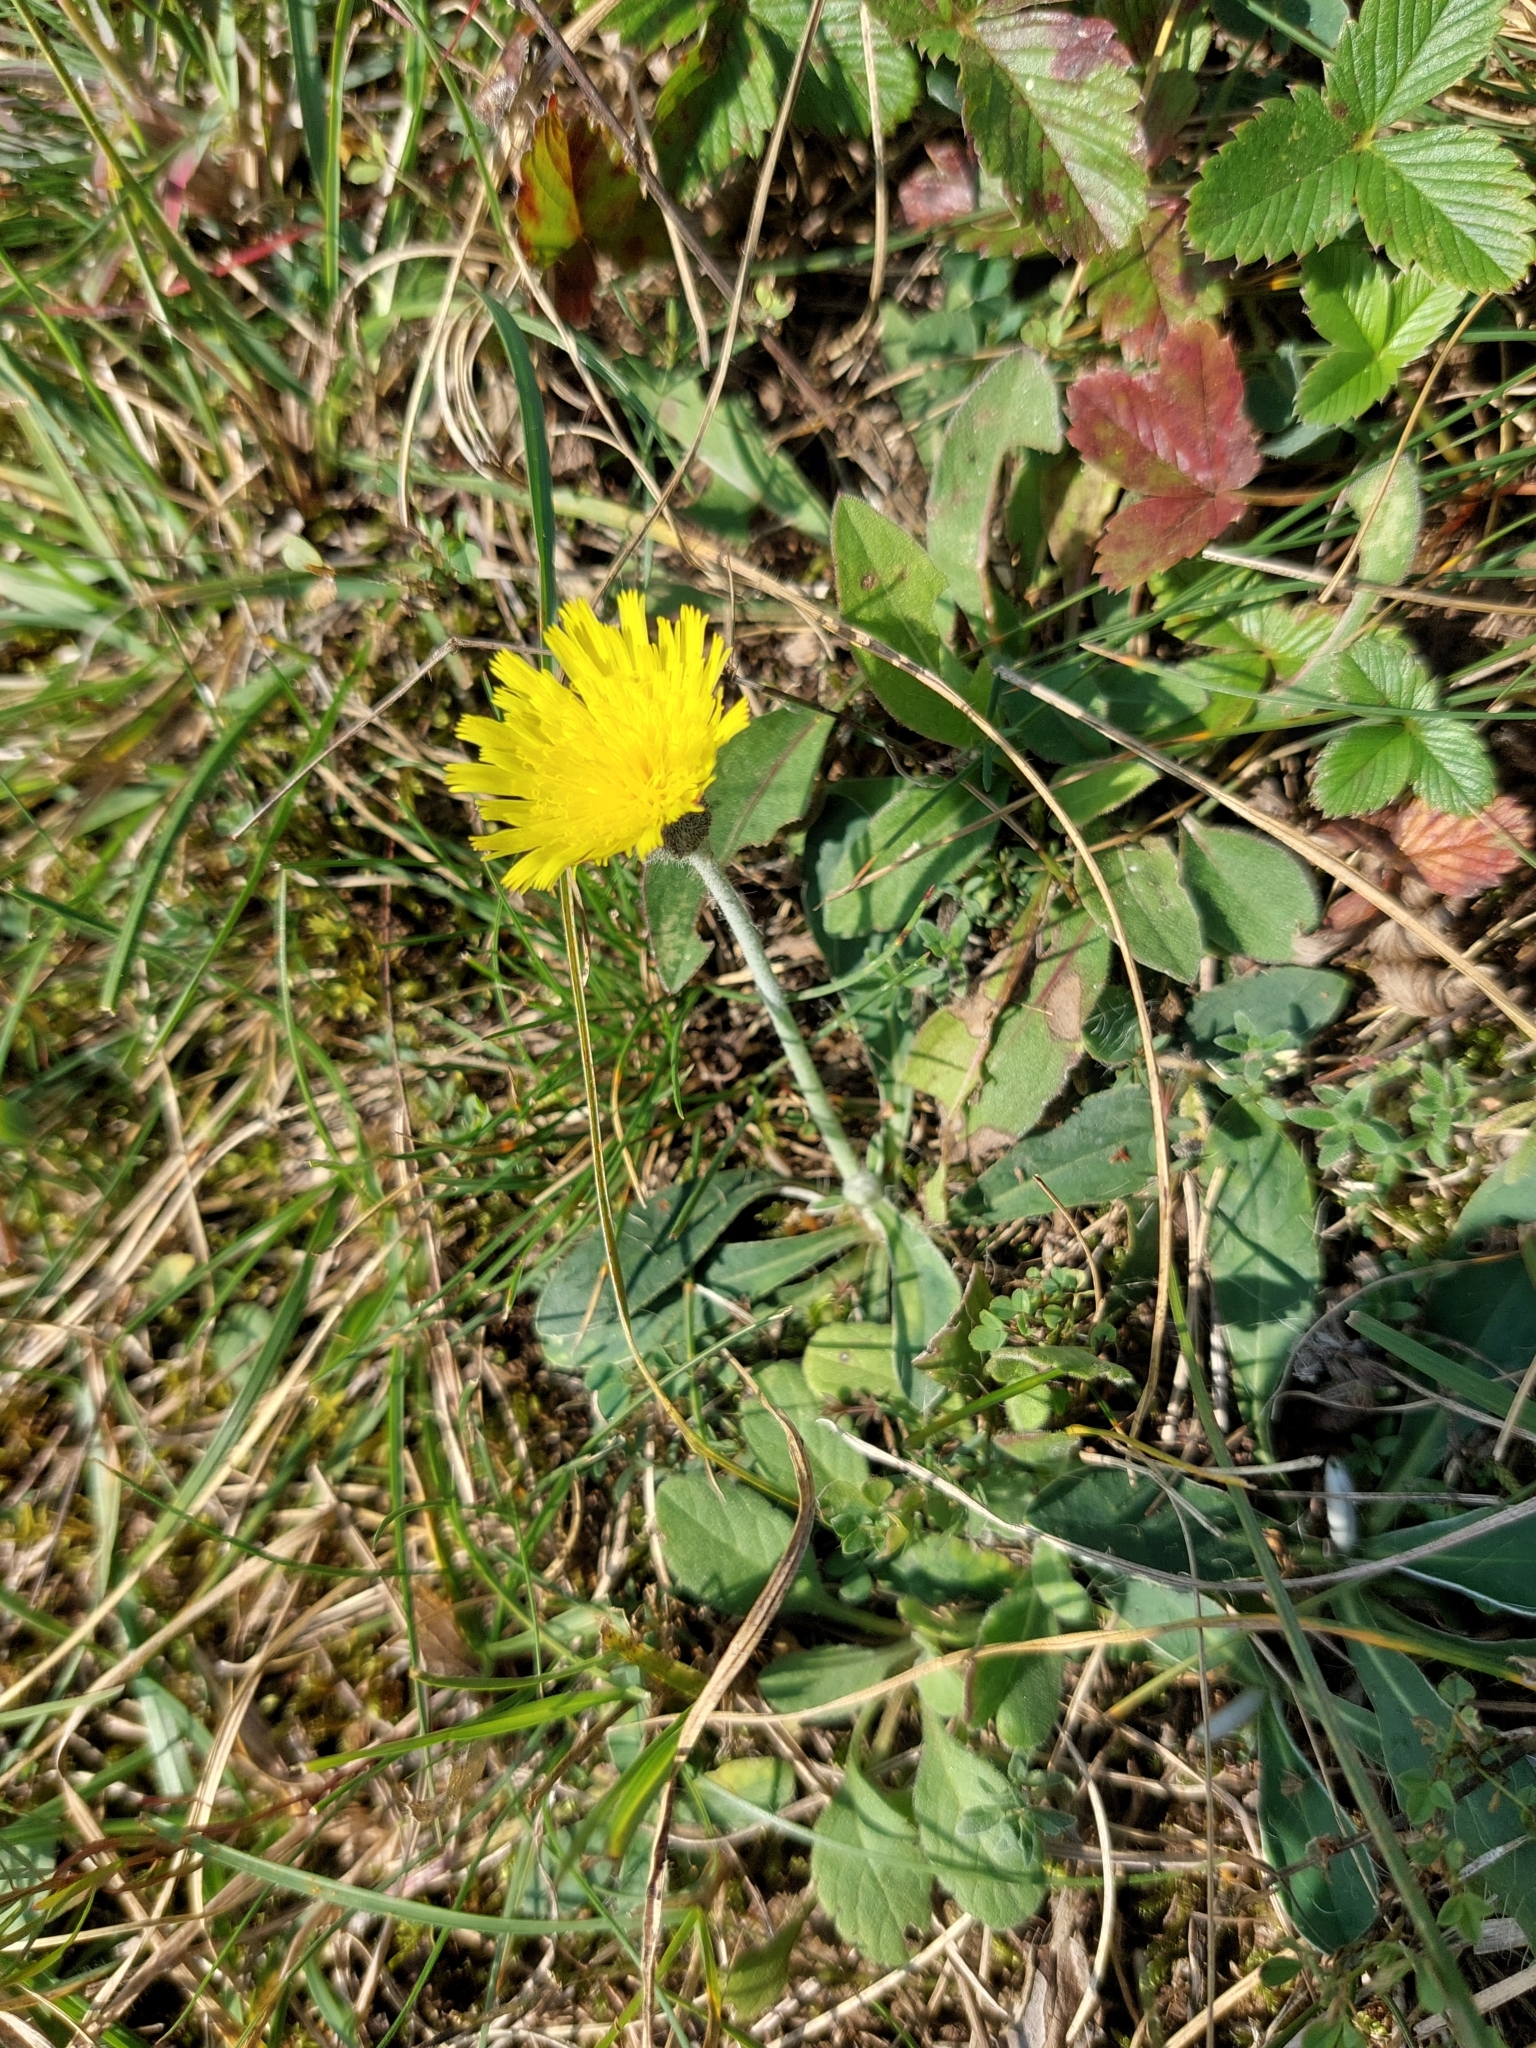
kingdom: Plantae
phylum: Tracheophyta
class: Magnoliopsida
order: Asterales
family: Asteraceae
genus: Pilosella
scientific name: Pilosella officinarum
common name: Mouse-ear hawkweed
